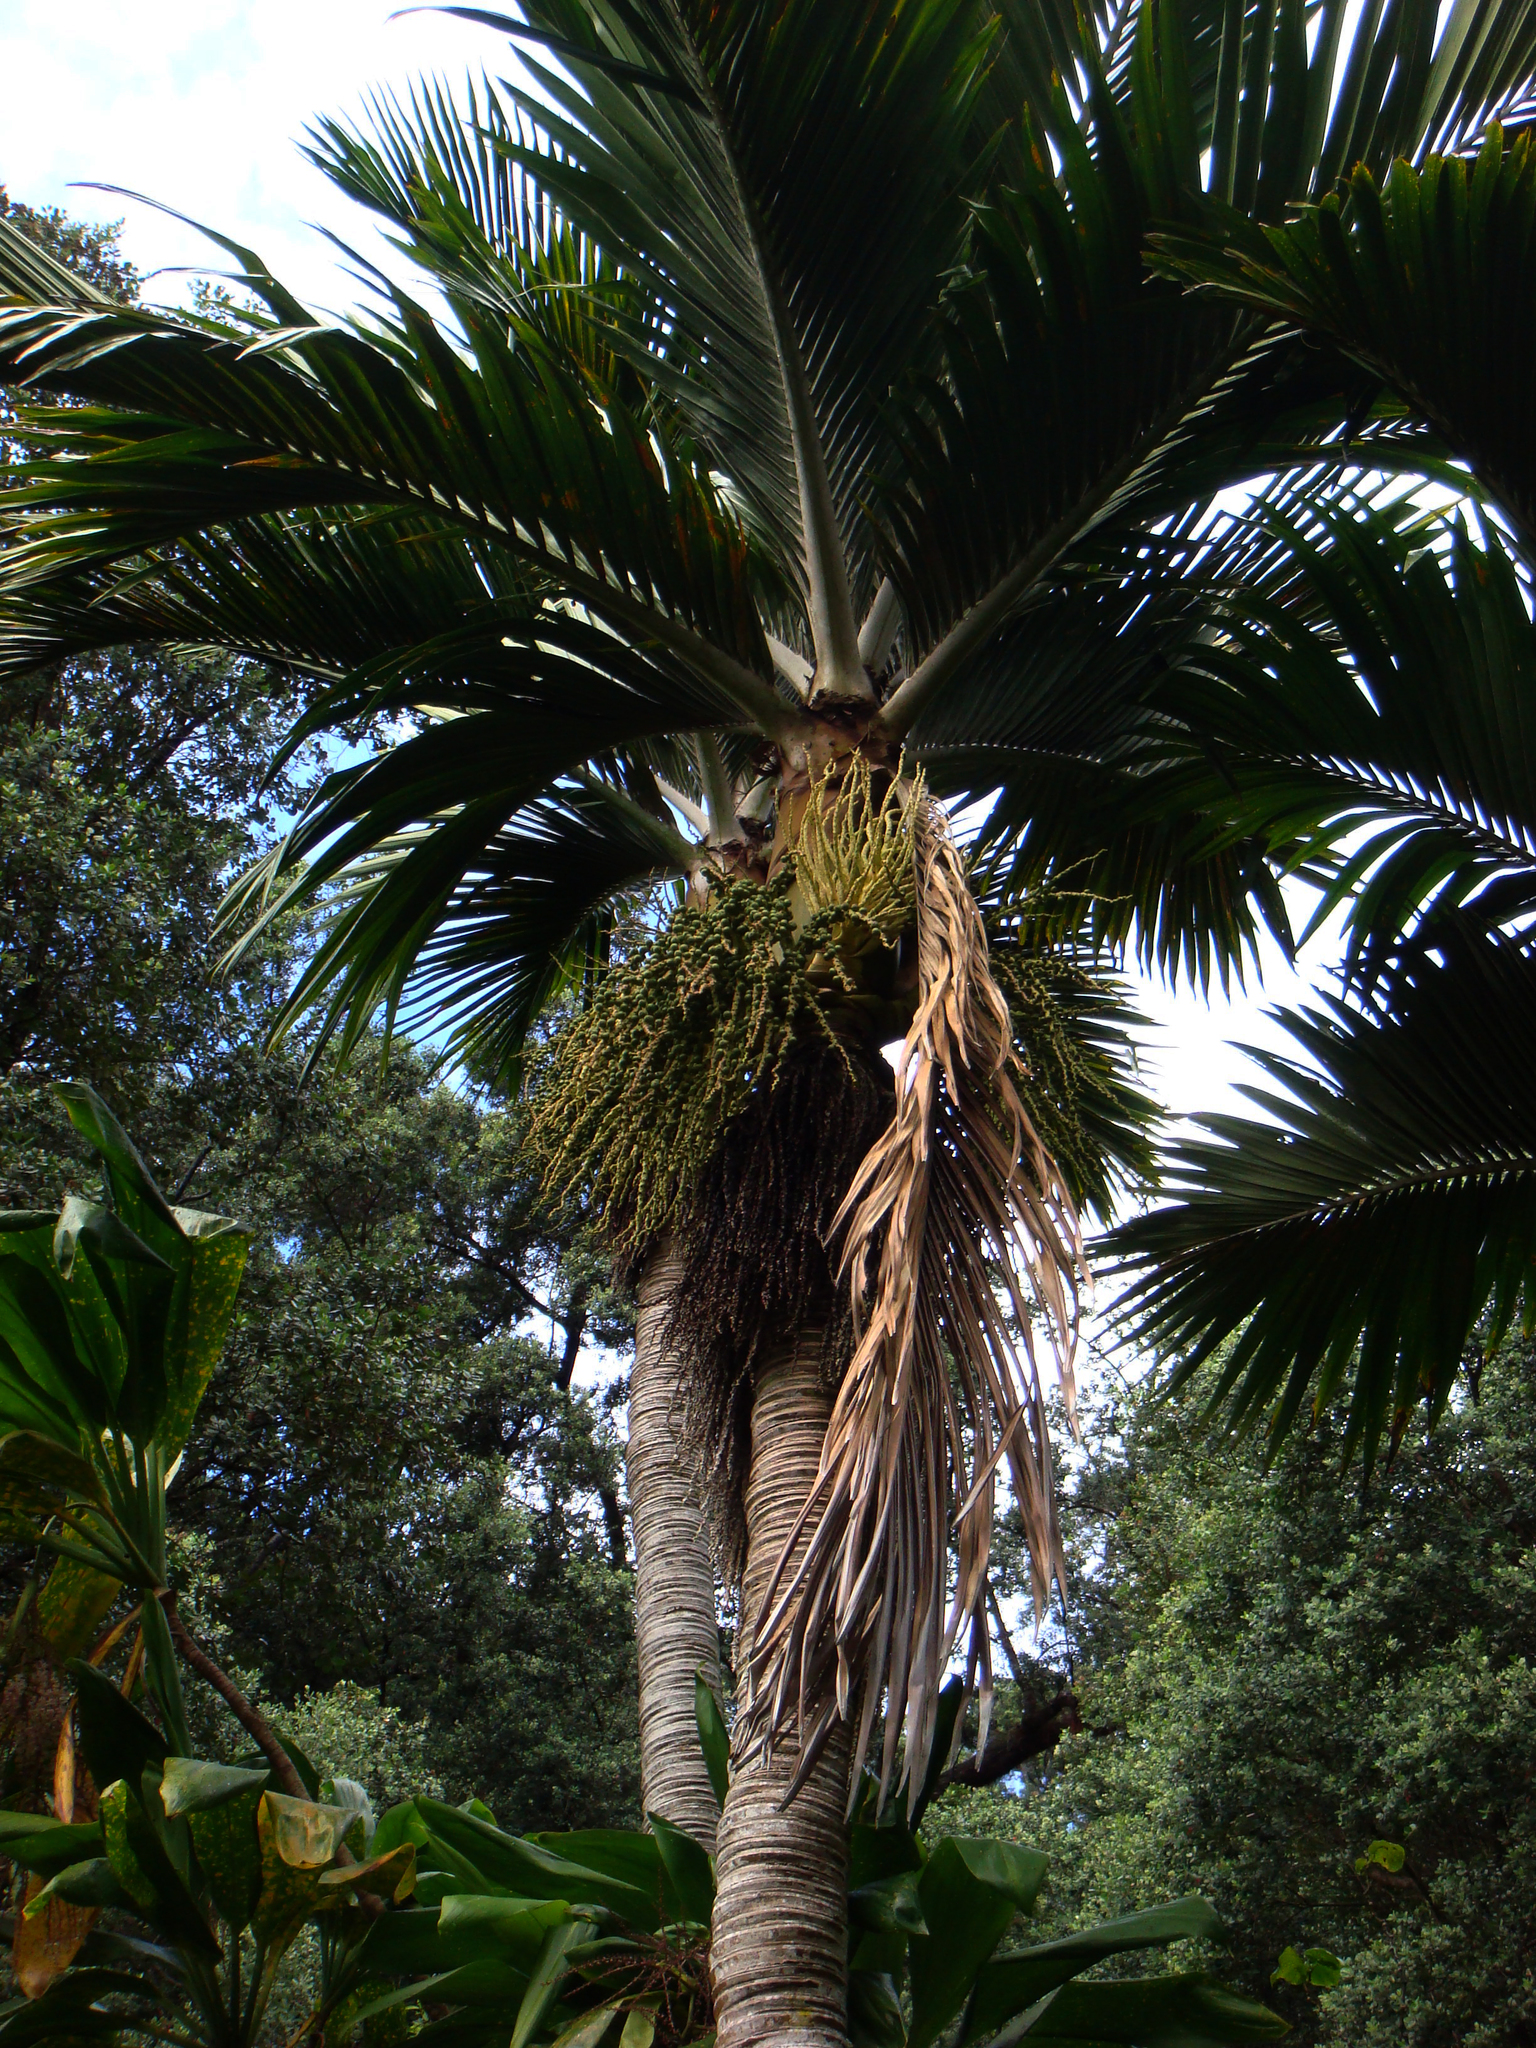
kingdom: Plantae
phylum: Tracheophyta
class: Liliopsida
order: Arecales
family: Arecaceae
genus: Rhopalostylis
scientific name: Rhopalostylis baueri
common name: Norfolk island palm
